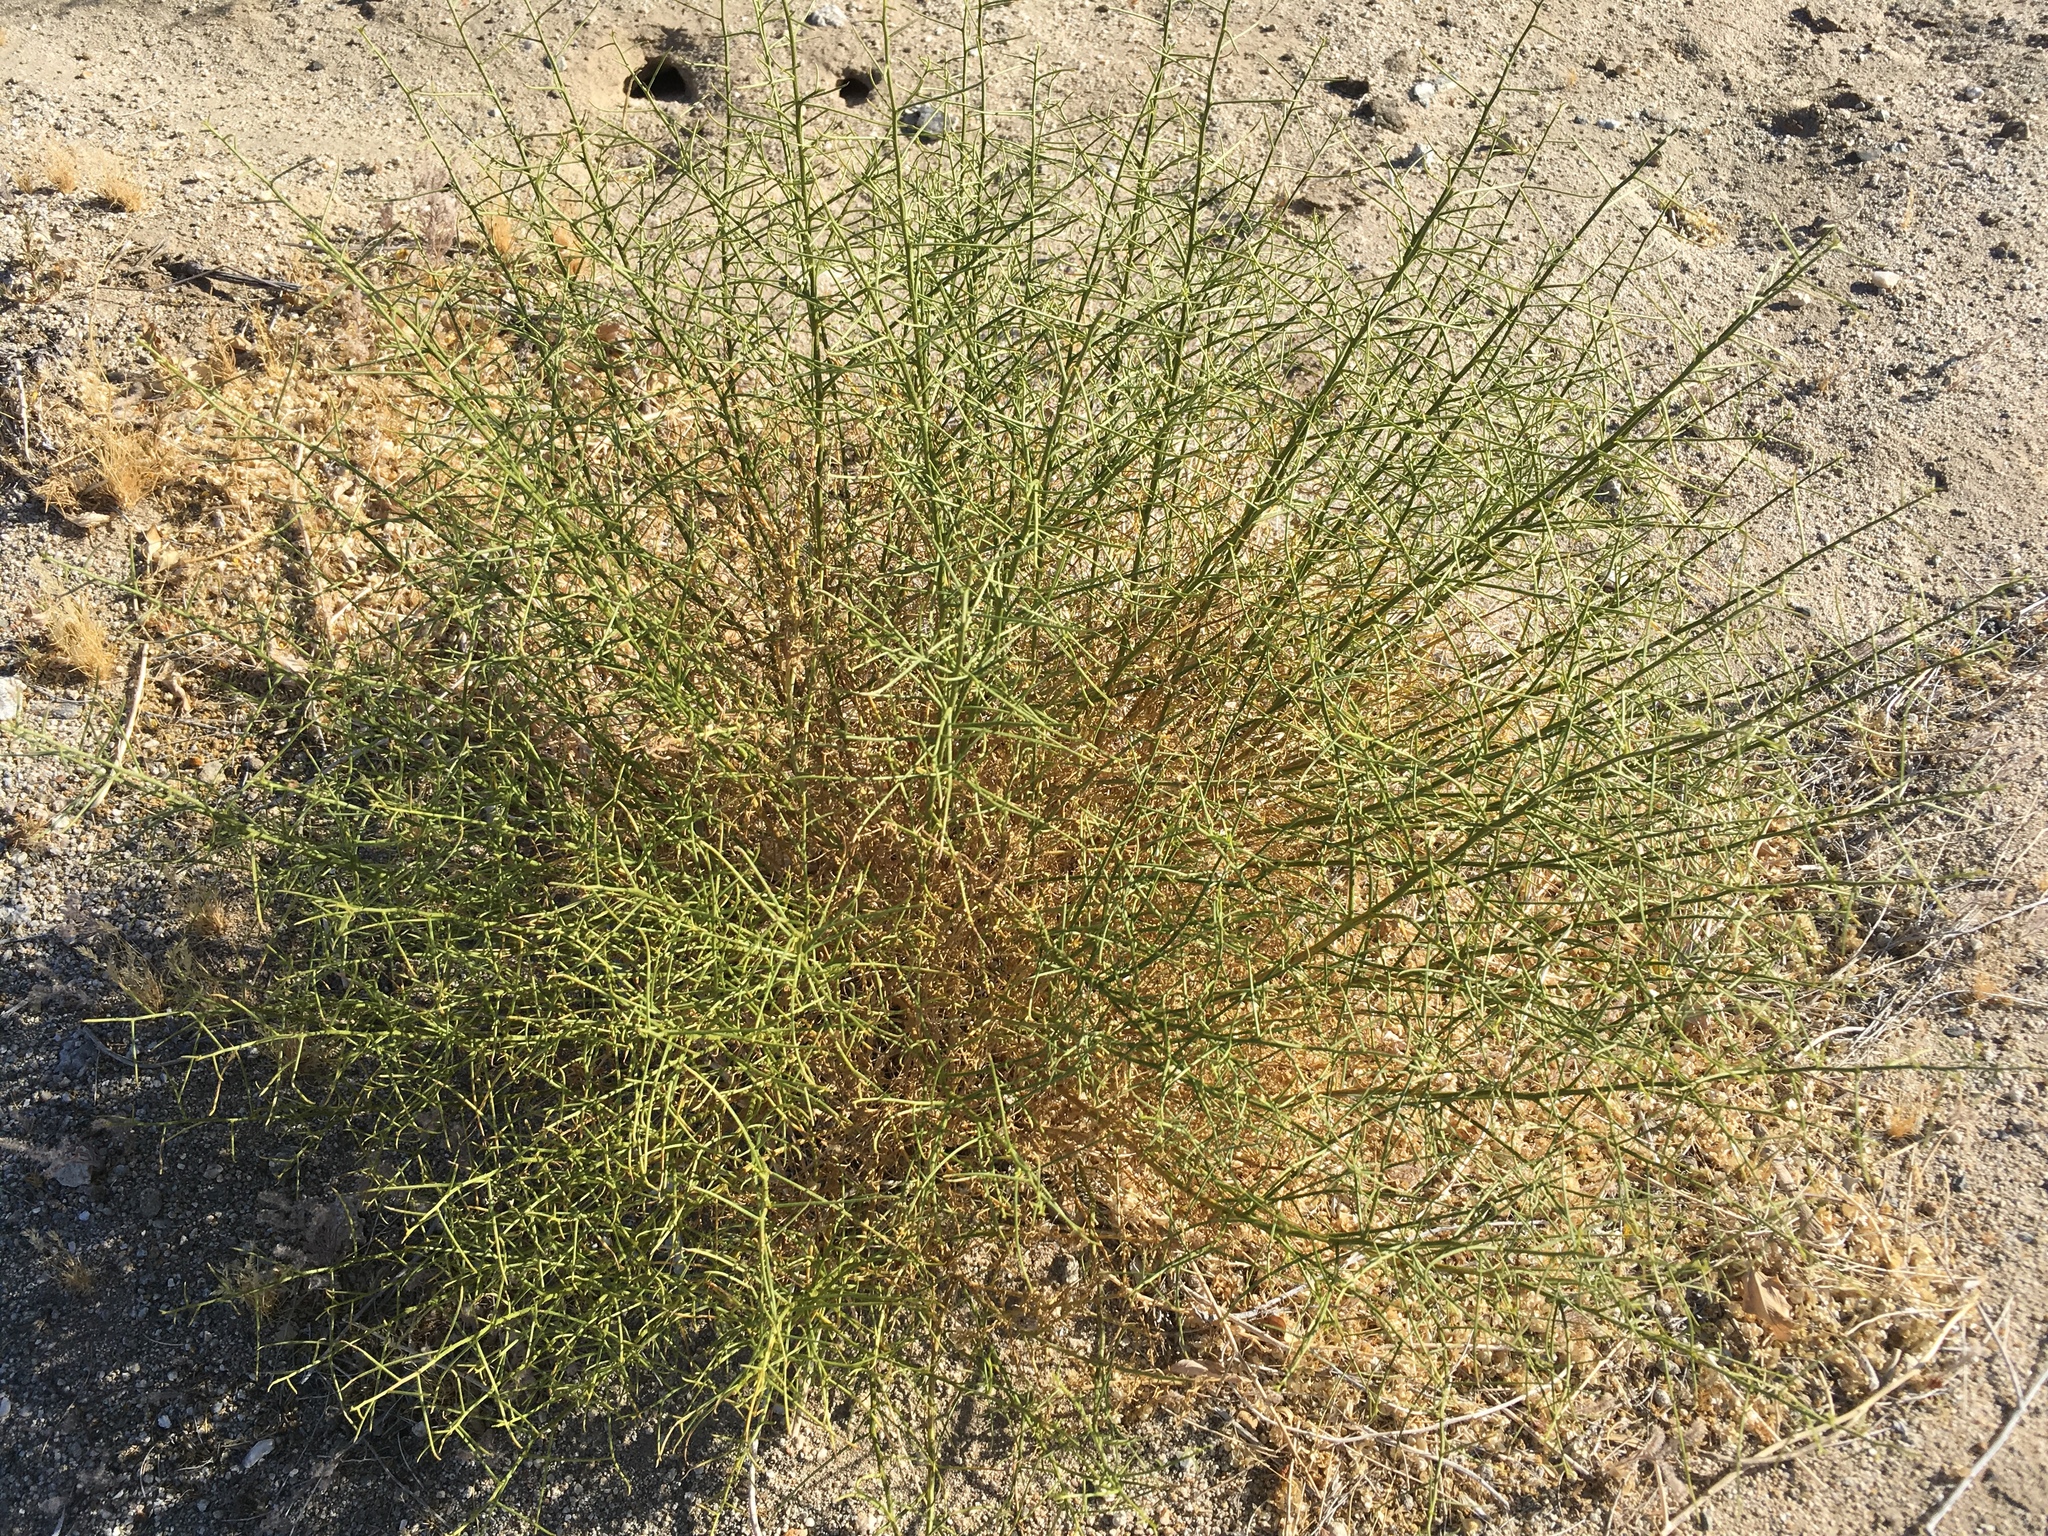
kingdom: Plantae
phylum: Tracheophyta
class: Magnoliopsida
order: Asterales
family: Asteraceae
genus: Ambrosia
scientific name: Ambrosia salsola
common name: Burrobrush
